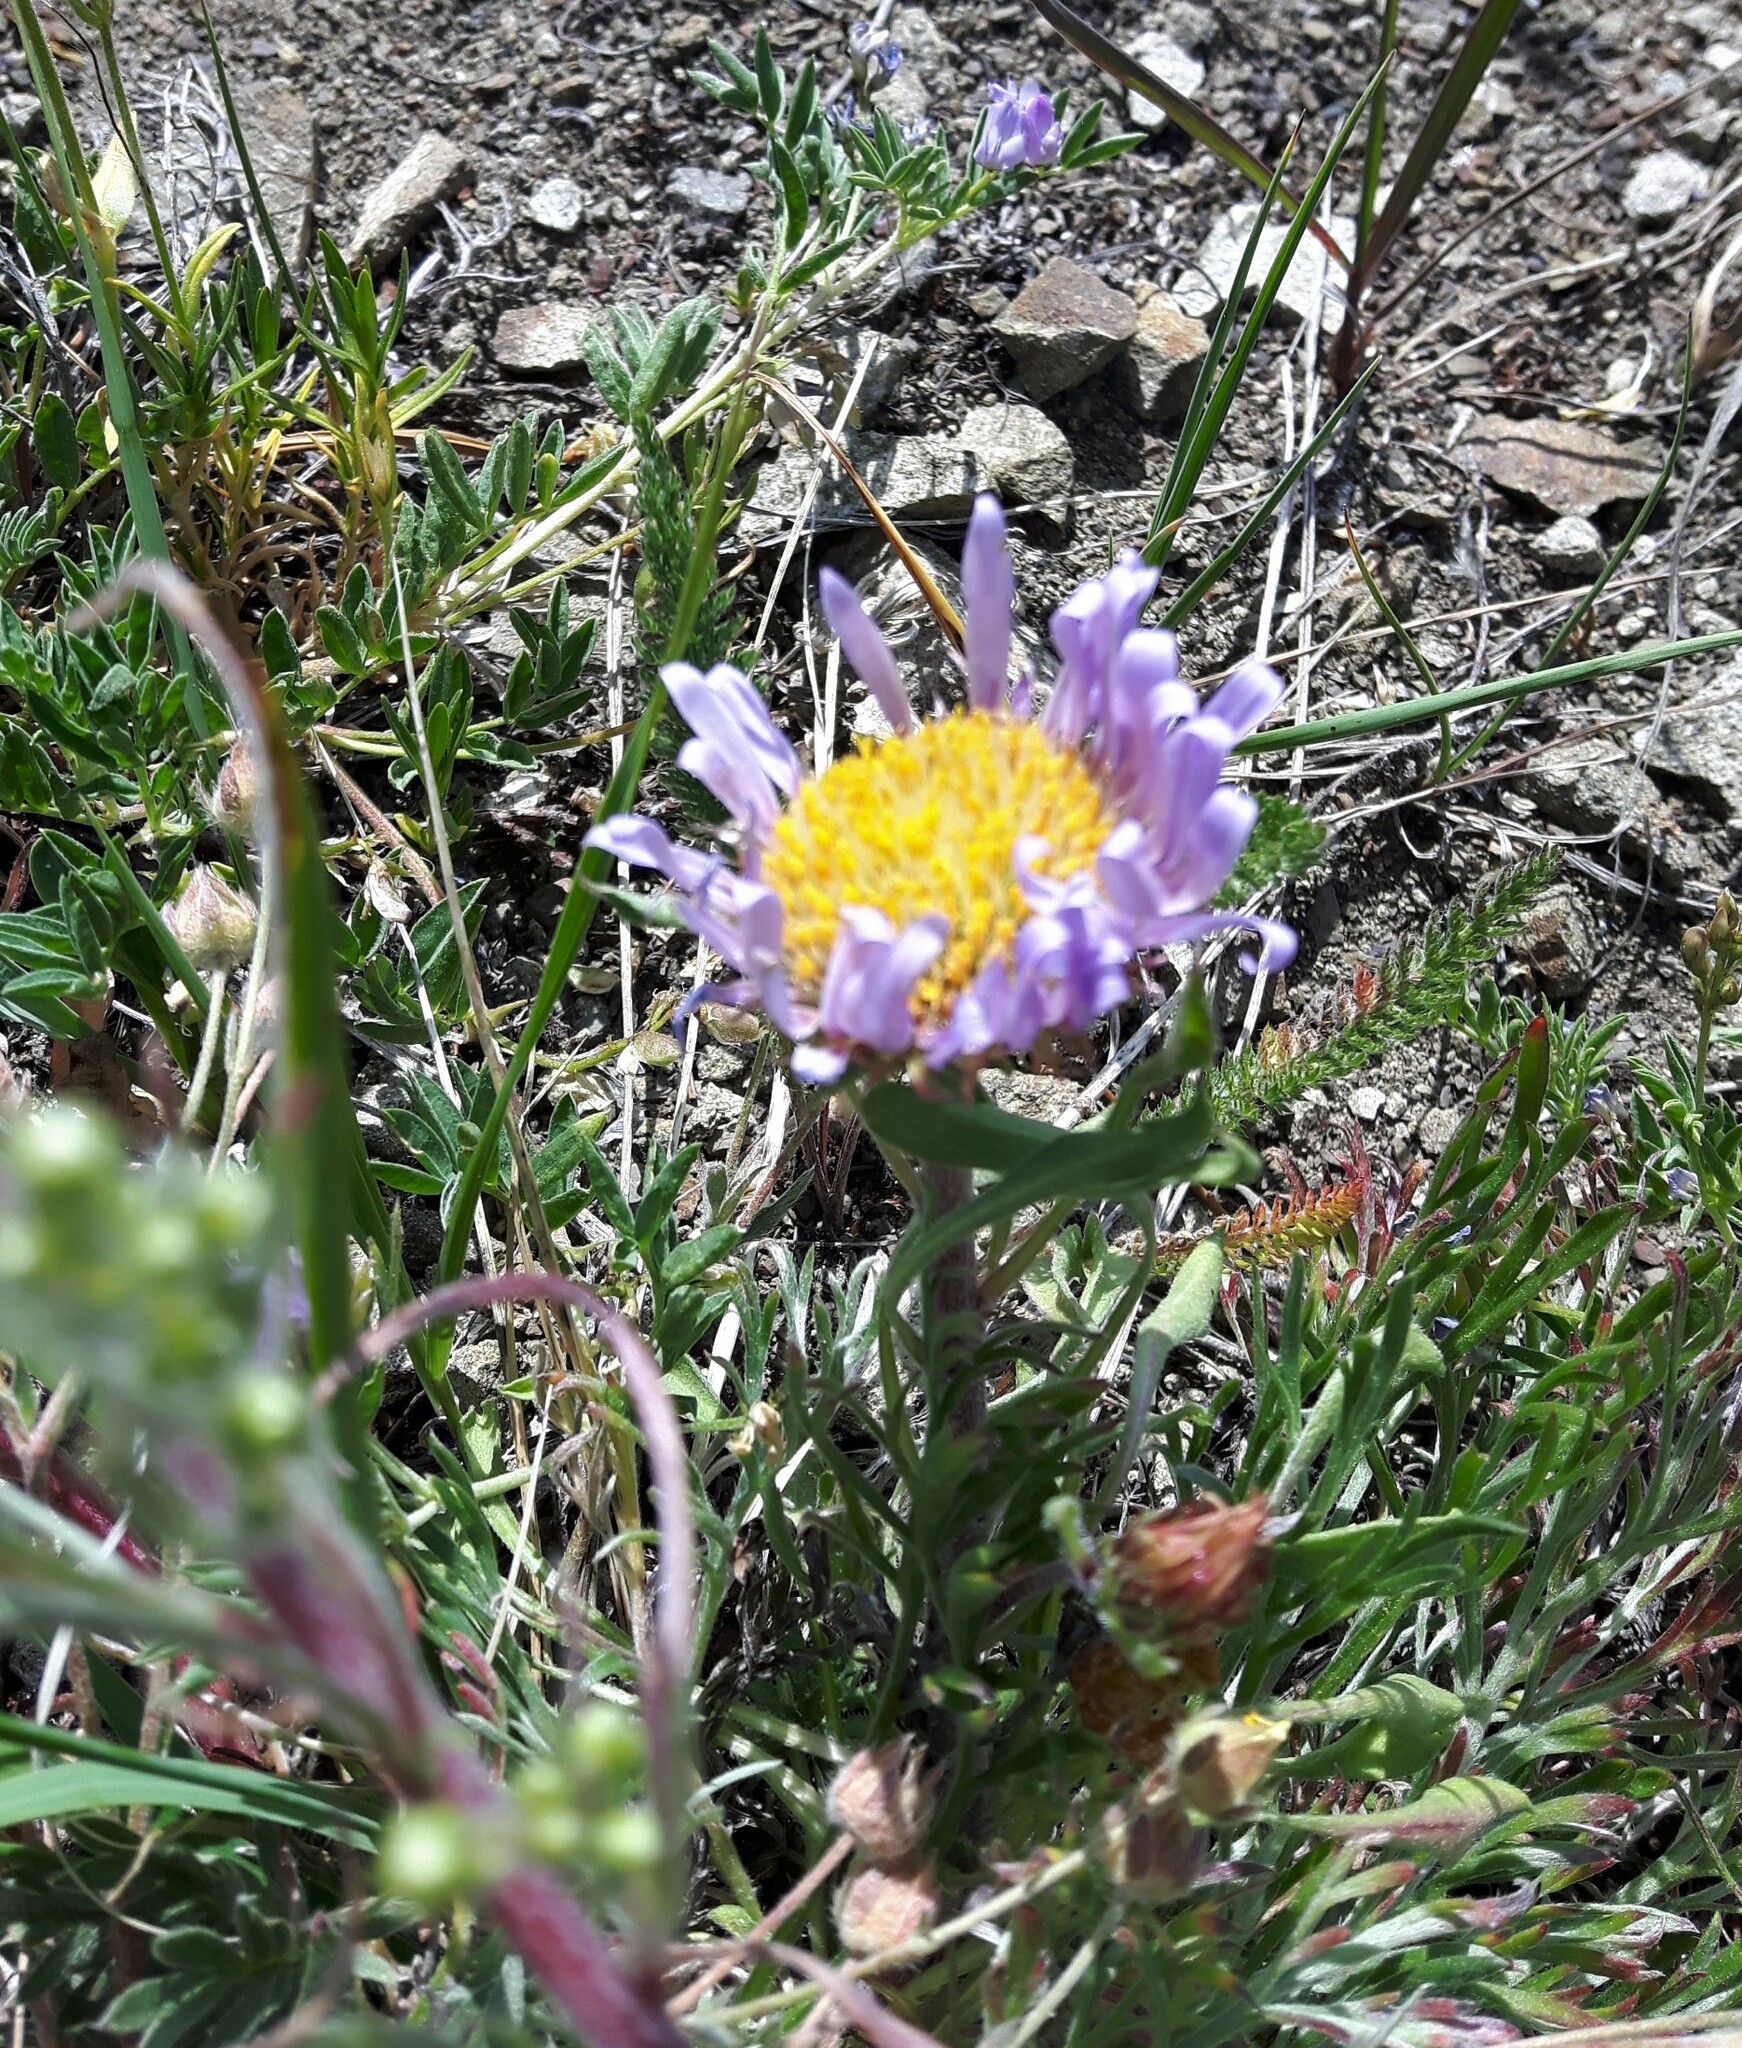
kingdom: Plantae
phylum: Tracheophyta
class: Magnoliopsida
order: Asterales
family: Asteraceae
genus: Townsendia
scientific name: Townsendia parryi
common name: Parry's townsend daisy
